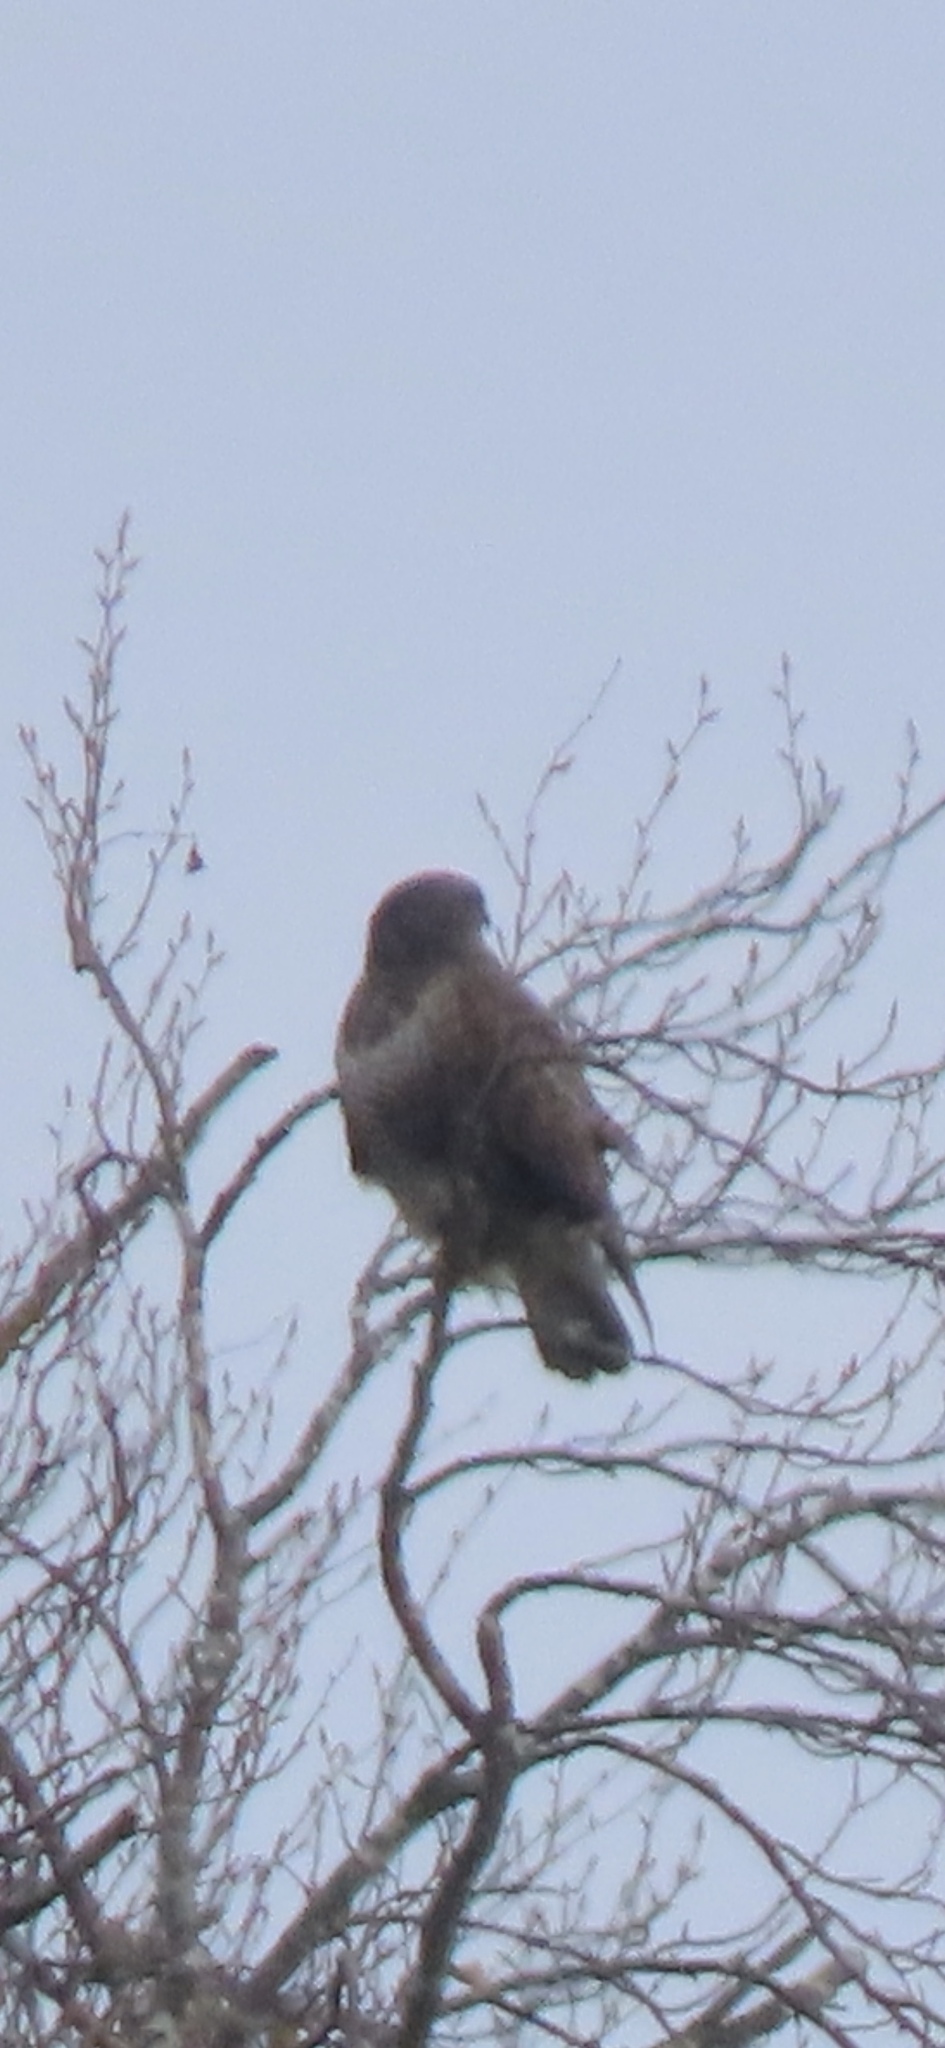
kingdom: Animalia
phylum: Chordata
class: Aves
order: Accipitriformes
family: Accipitridae
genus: Buteo
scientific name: Buteo buteo
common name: Common buzzard
